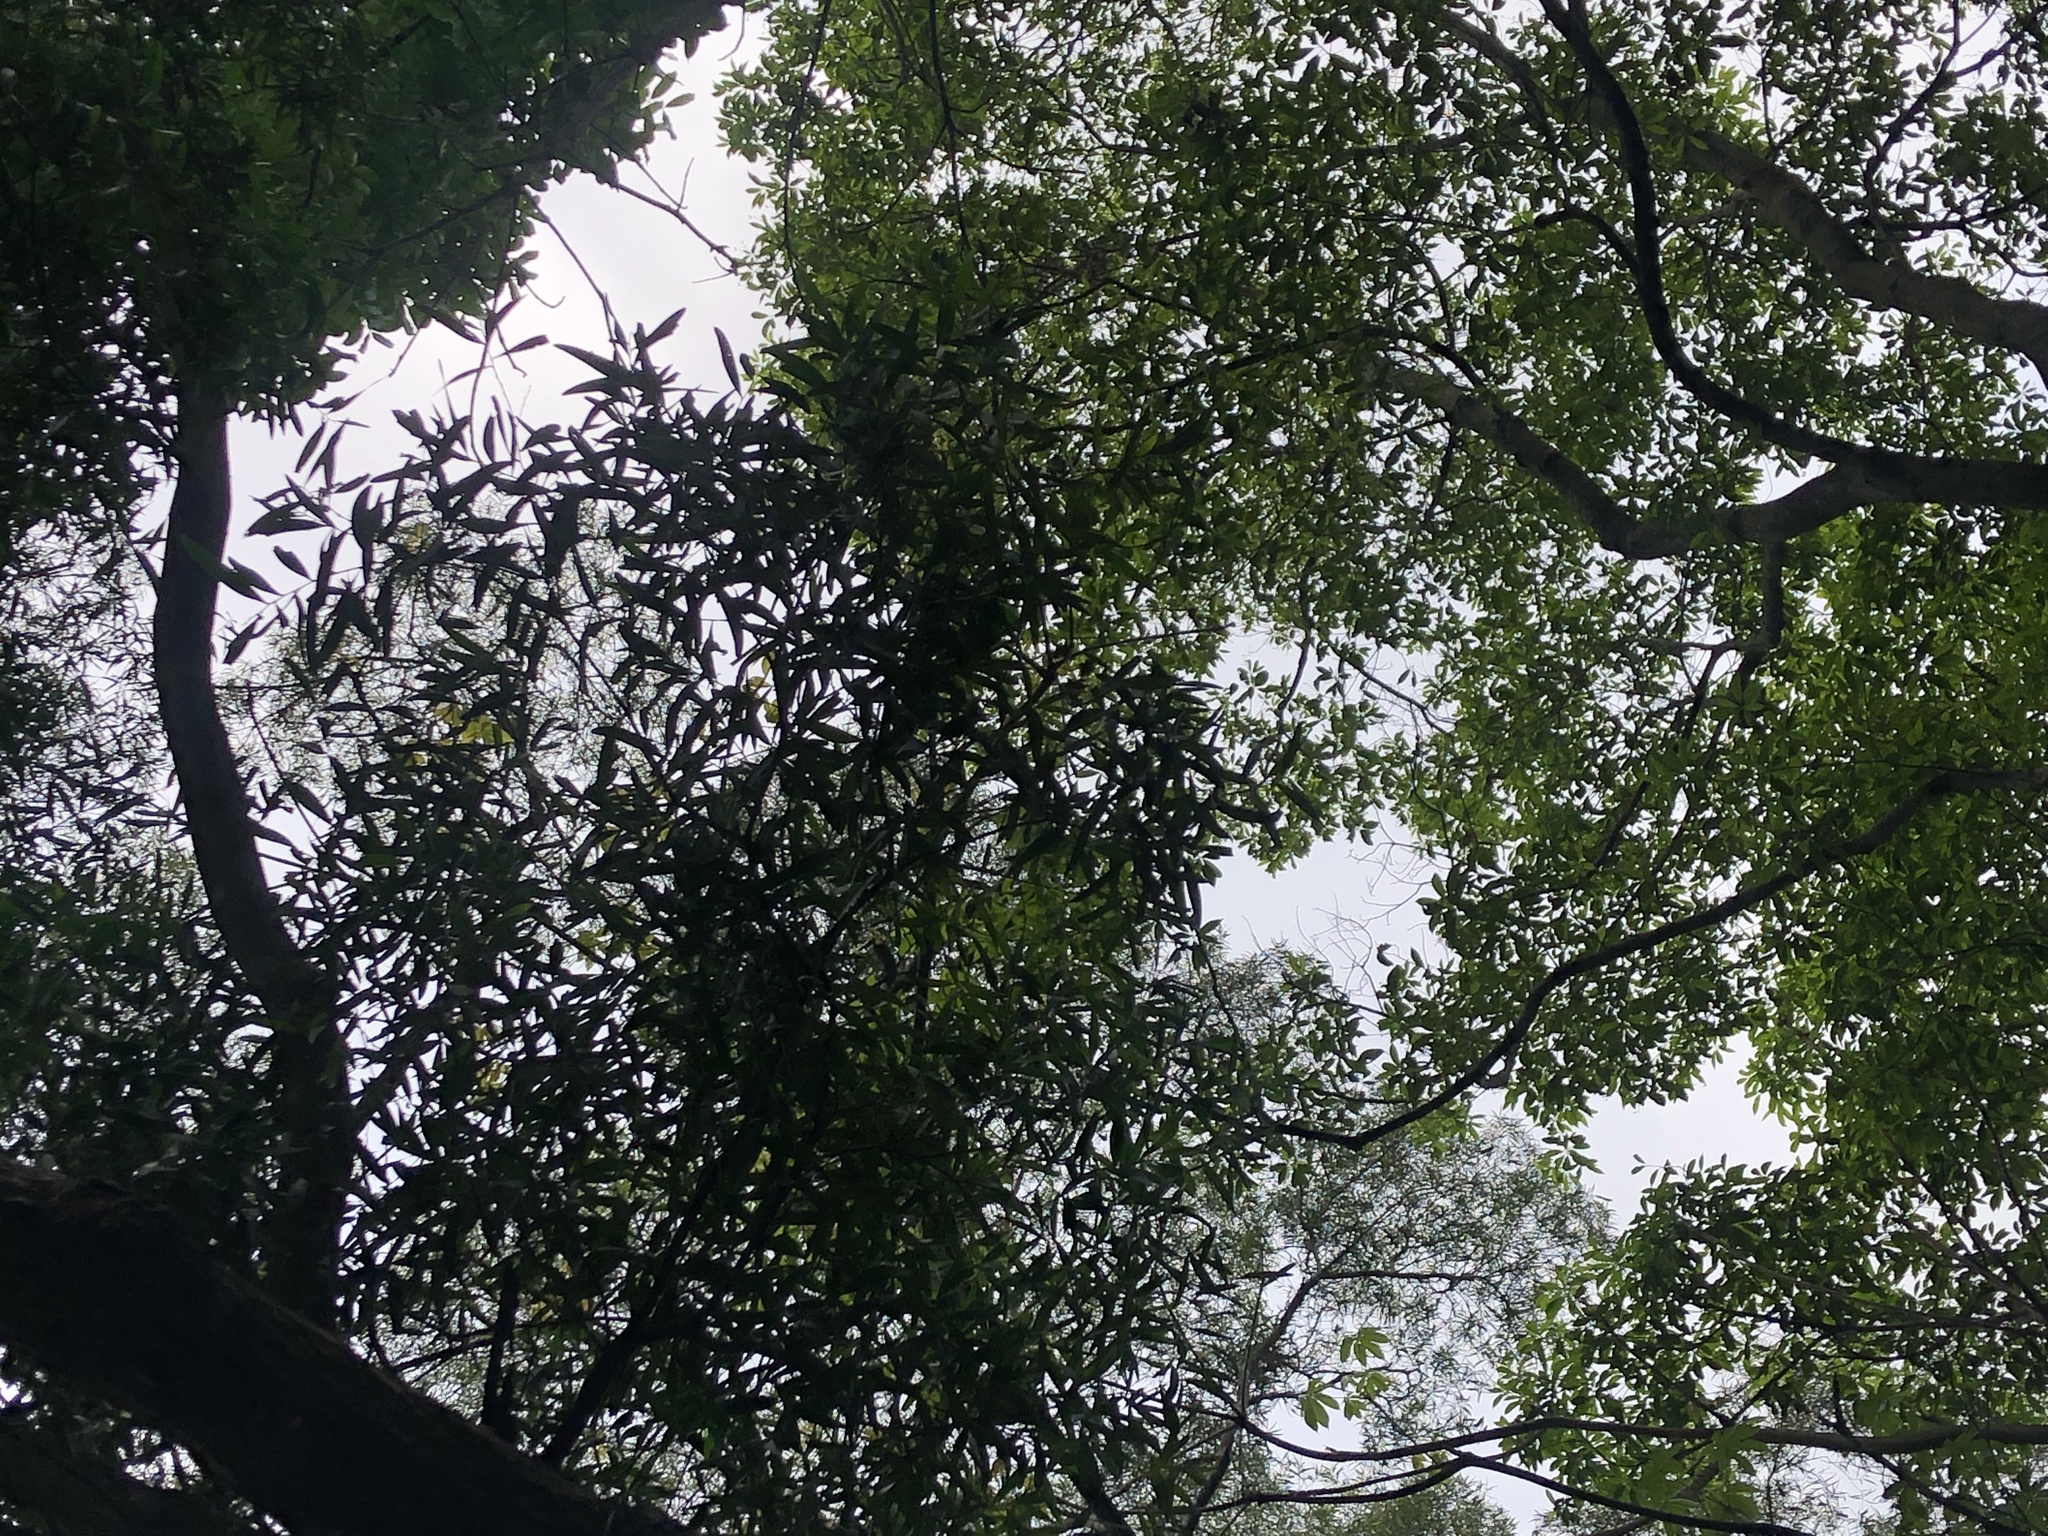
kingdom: Plantae
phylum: Tracheophyta
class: Magnoliopsida
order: Fabales
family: Fabaceae
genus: Acacia
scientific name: Acacia confusa
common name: Formosan koa
